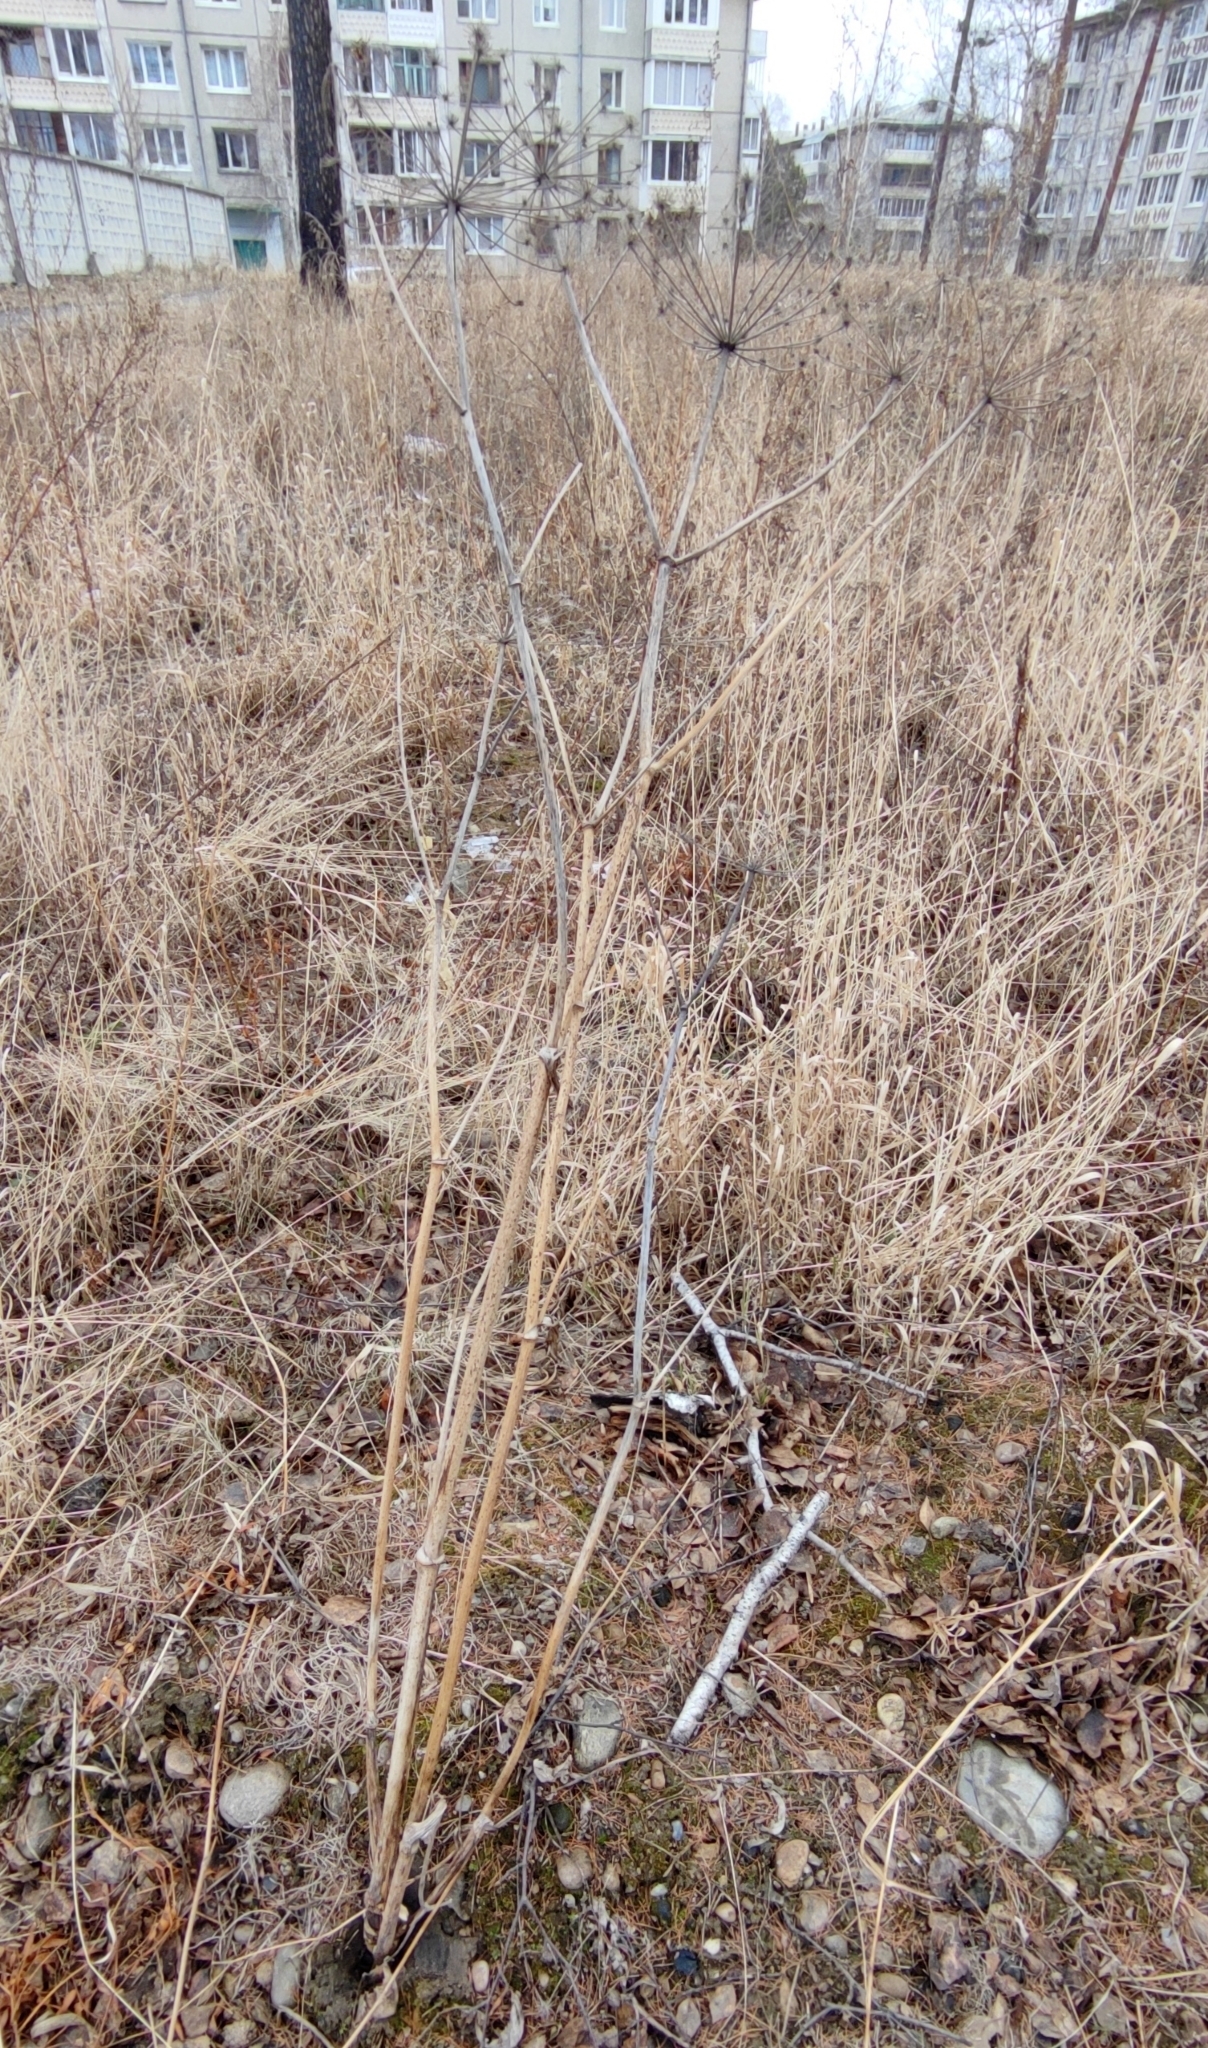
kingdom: Plantae
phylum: Tracheophyta
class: Magnoliopsida
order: Apiales
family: Apiaceae
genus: Angelica
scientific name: Angelica sylvestris
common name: Wild angelica
